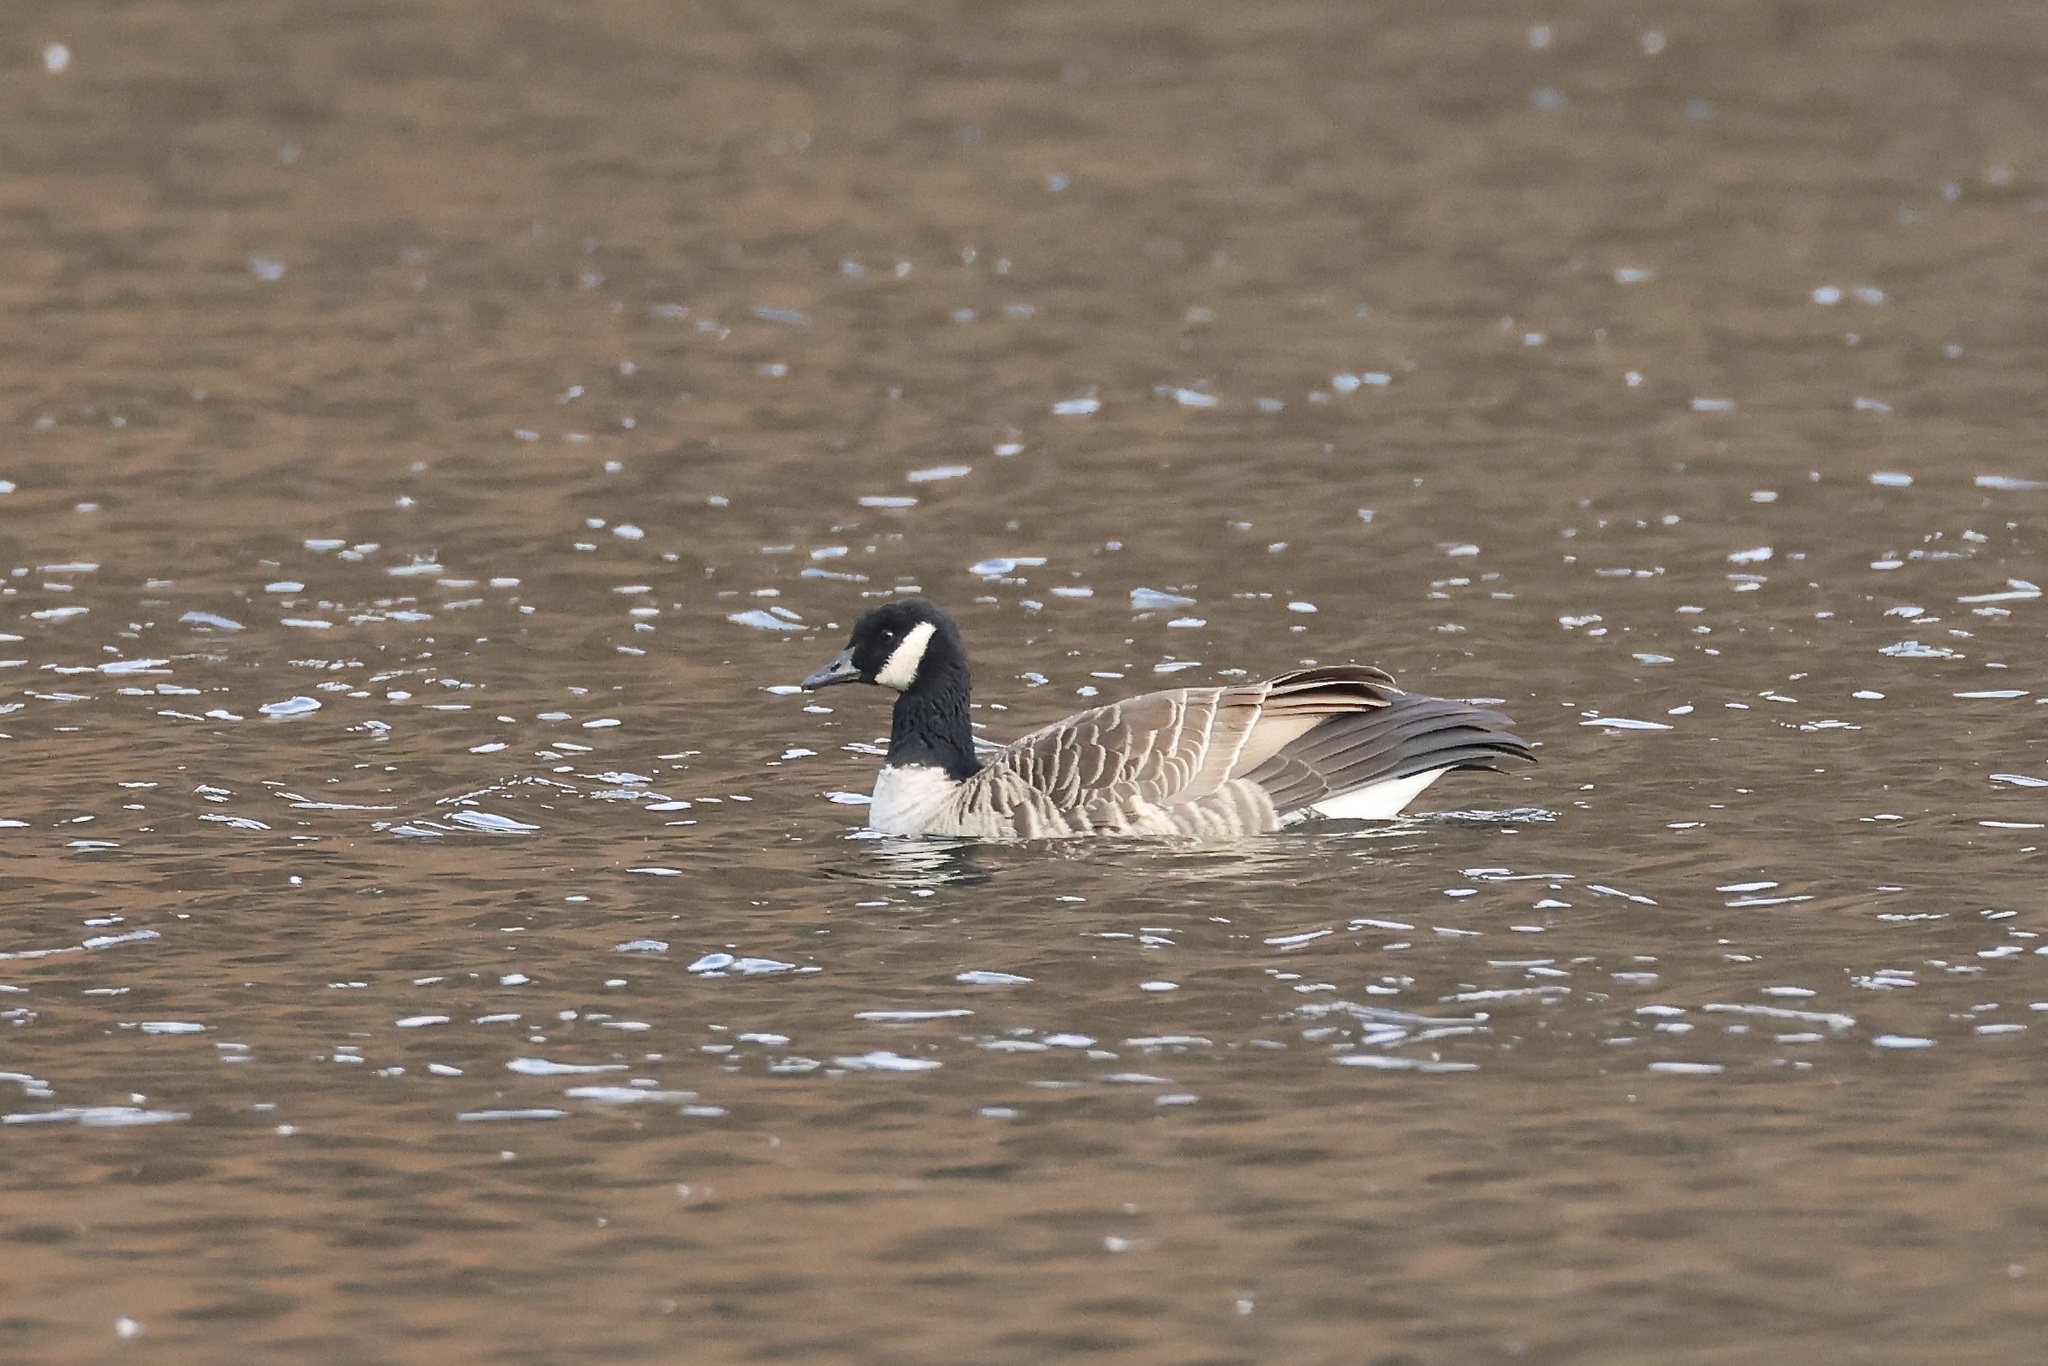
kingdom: Animalia
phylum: Chordata
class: Aves
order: Anseriformes
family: Anatidae
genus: Branta
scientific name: Branta hutchinsii
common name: Cackling goose
